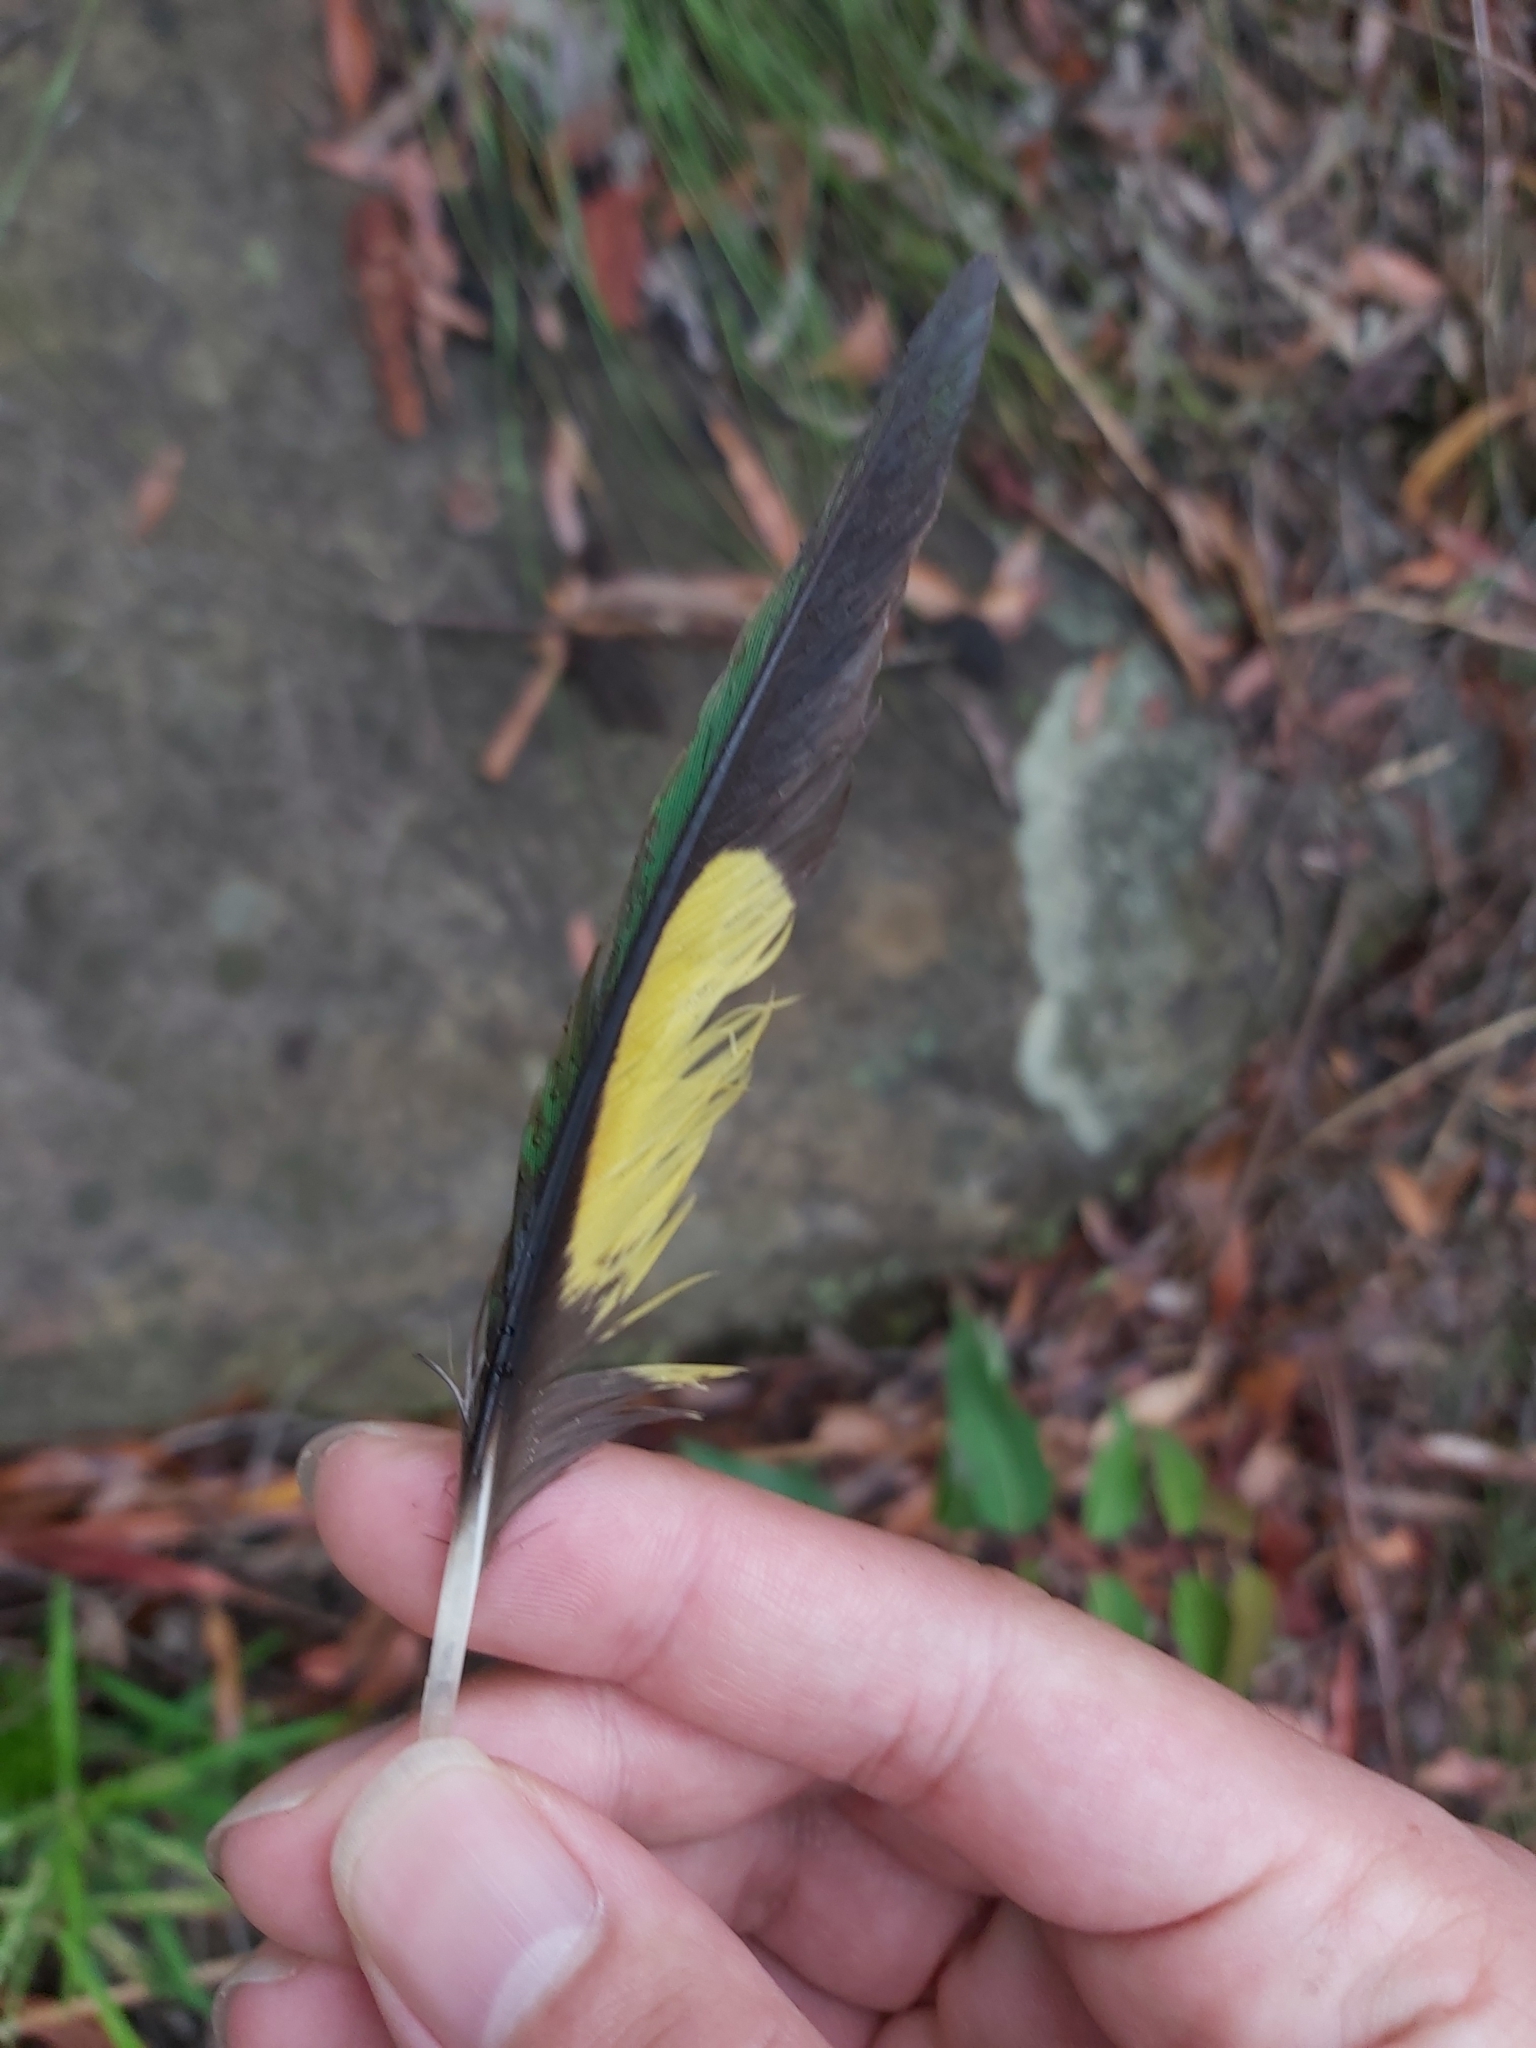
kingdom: Animalia
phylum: Chordata
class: Aves
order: Psittaciformes
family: Psittacidae
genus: Trichoglossus
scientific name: Trichoglossus haematodus
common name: Coconut lorikeet
